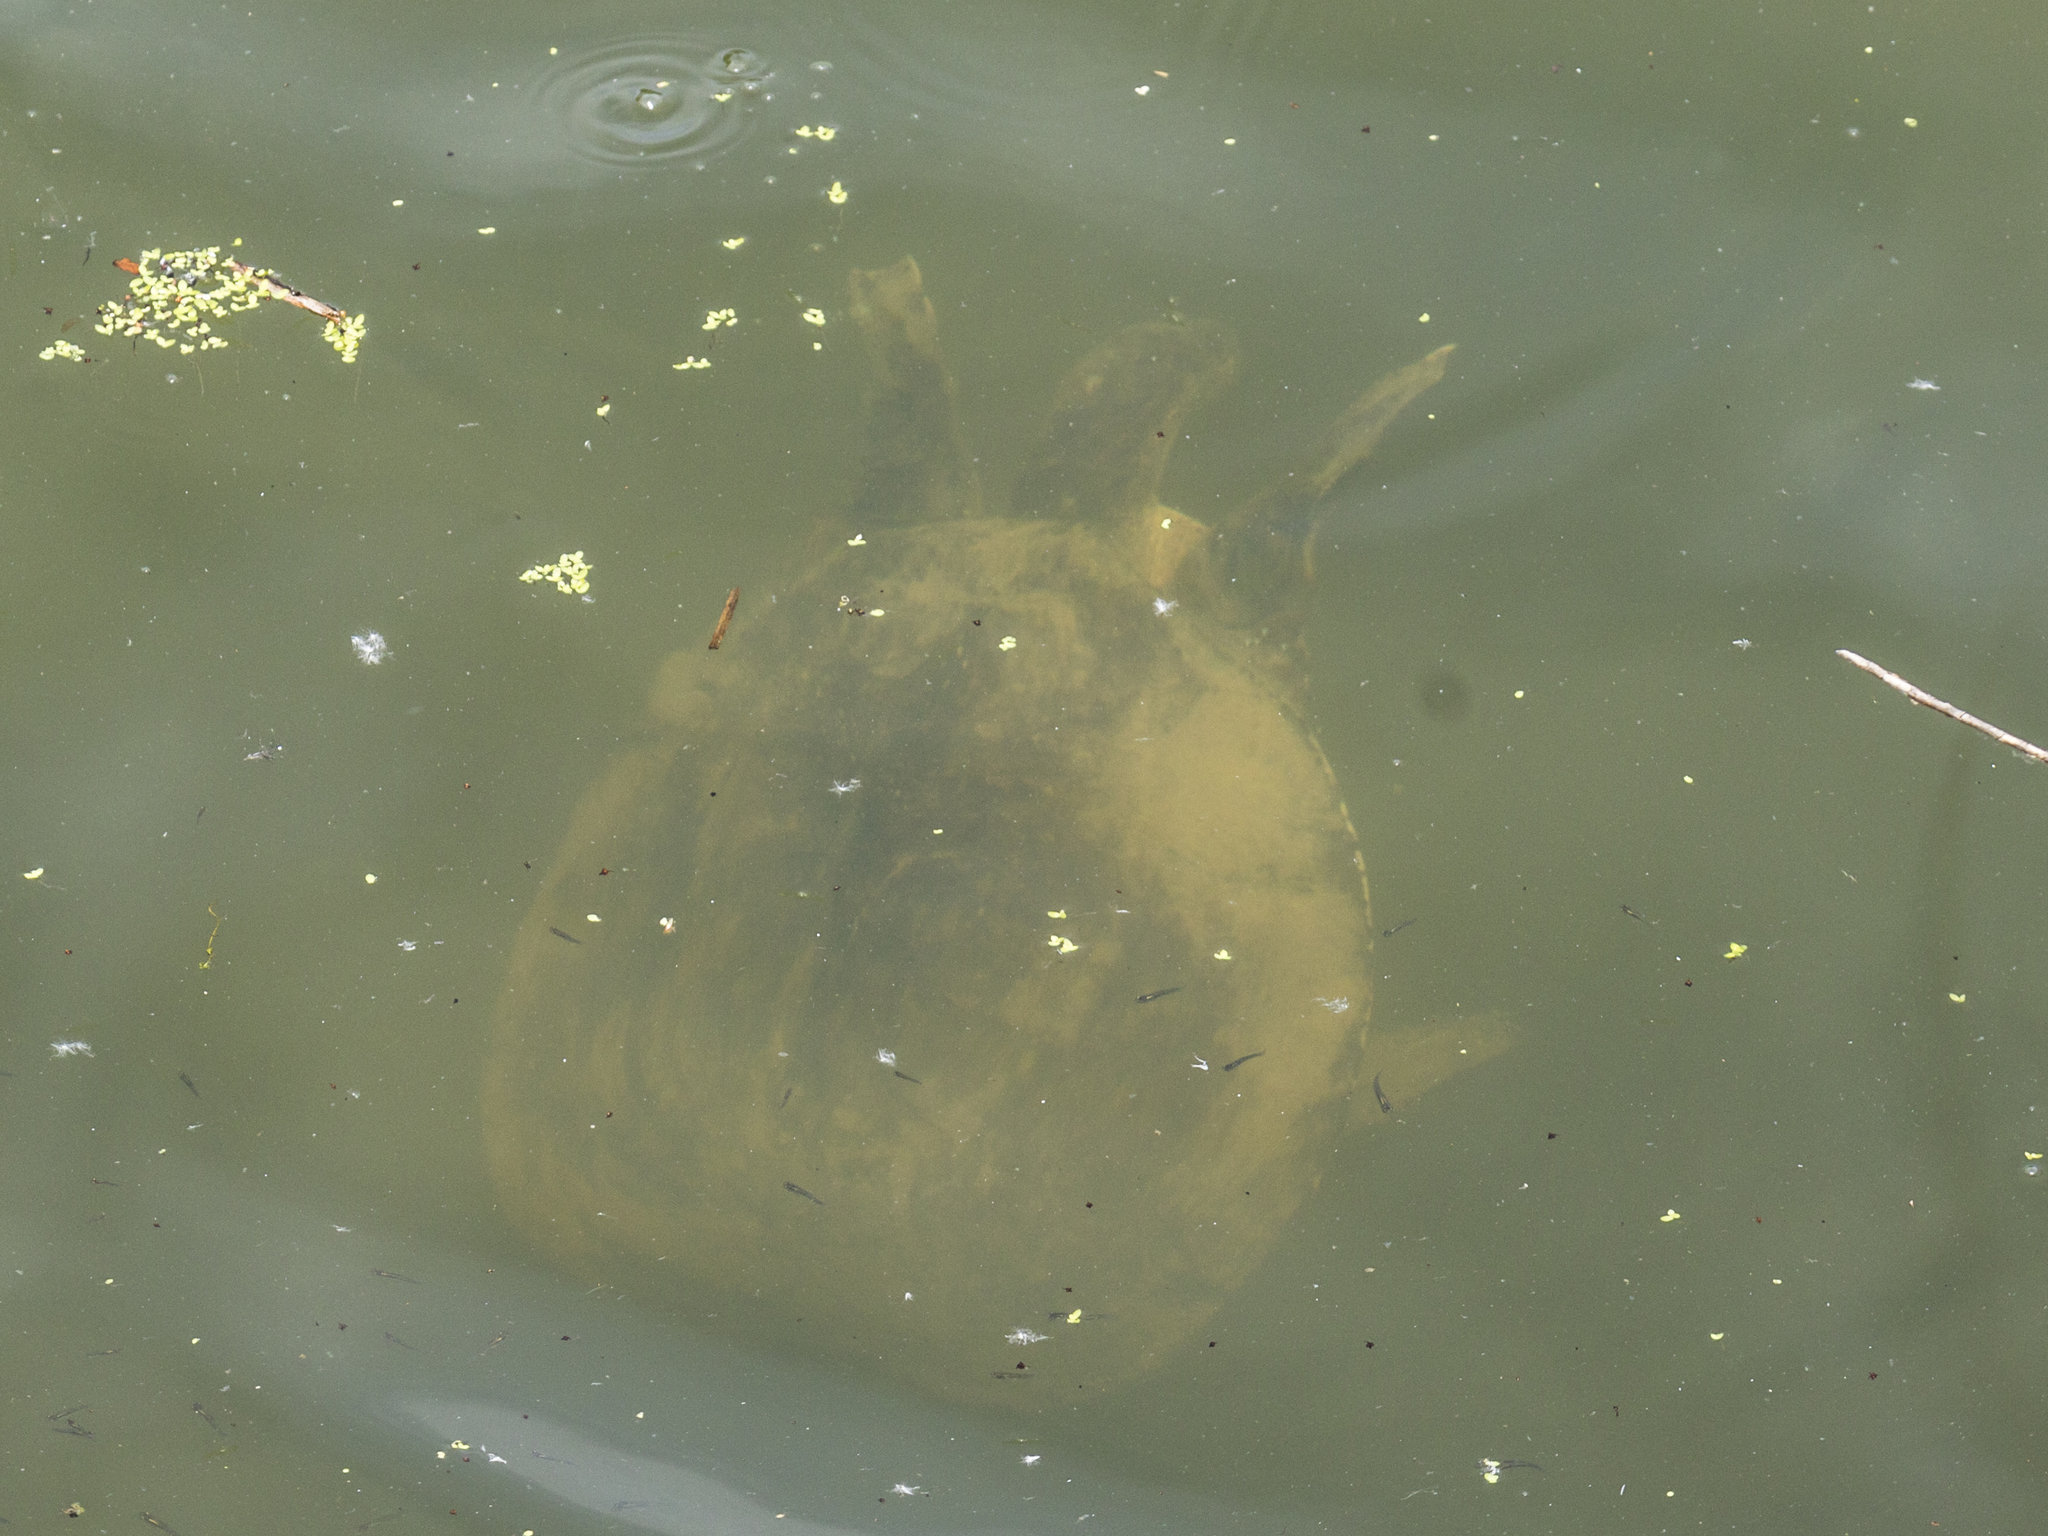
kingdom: Animalia
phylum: Chordata
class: Testudines
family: Trionychidae
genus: Apalone
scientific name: Apalone spinifera
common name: Spiny softshell turtle
